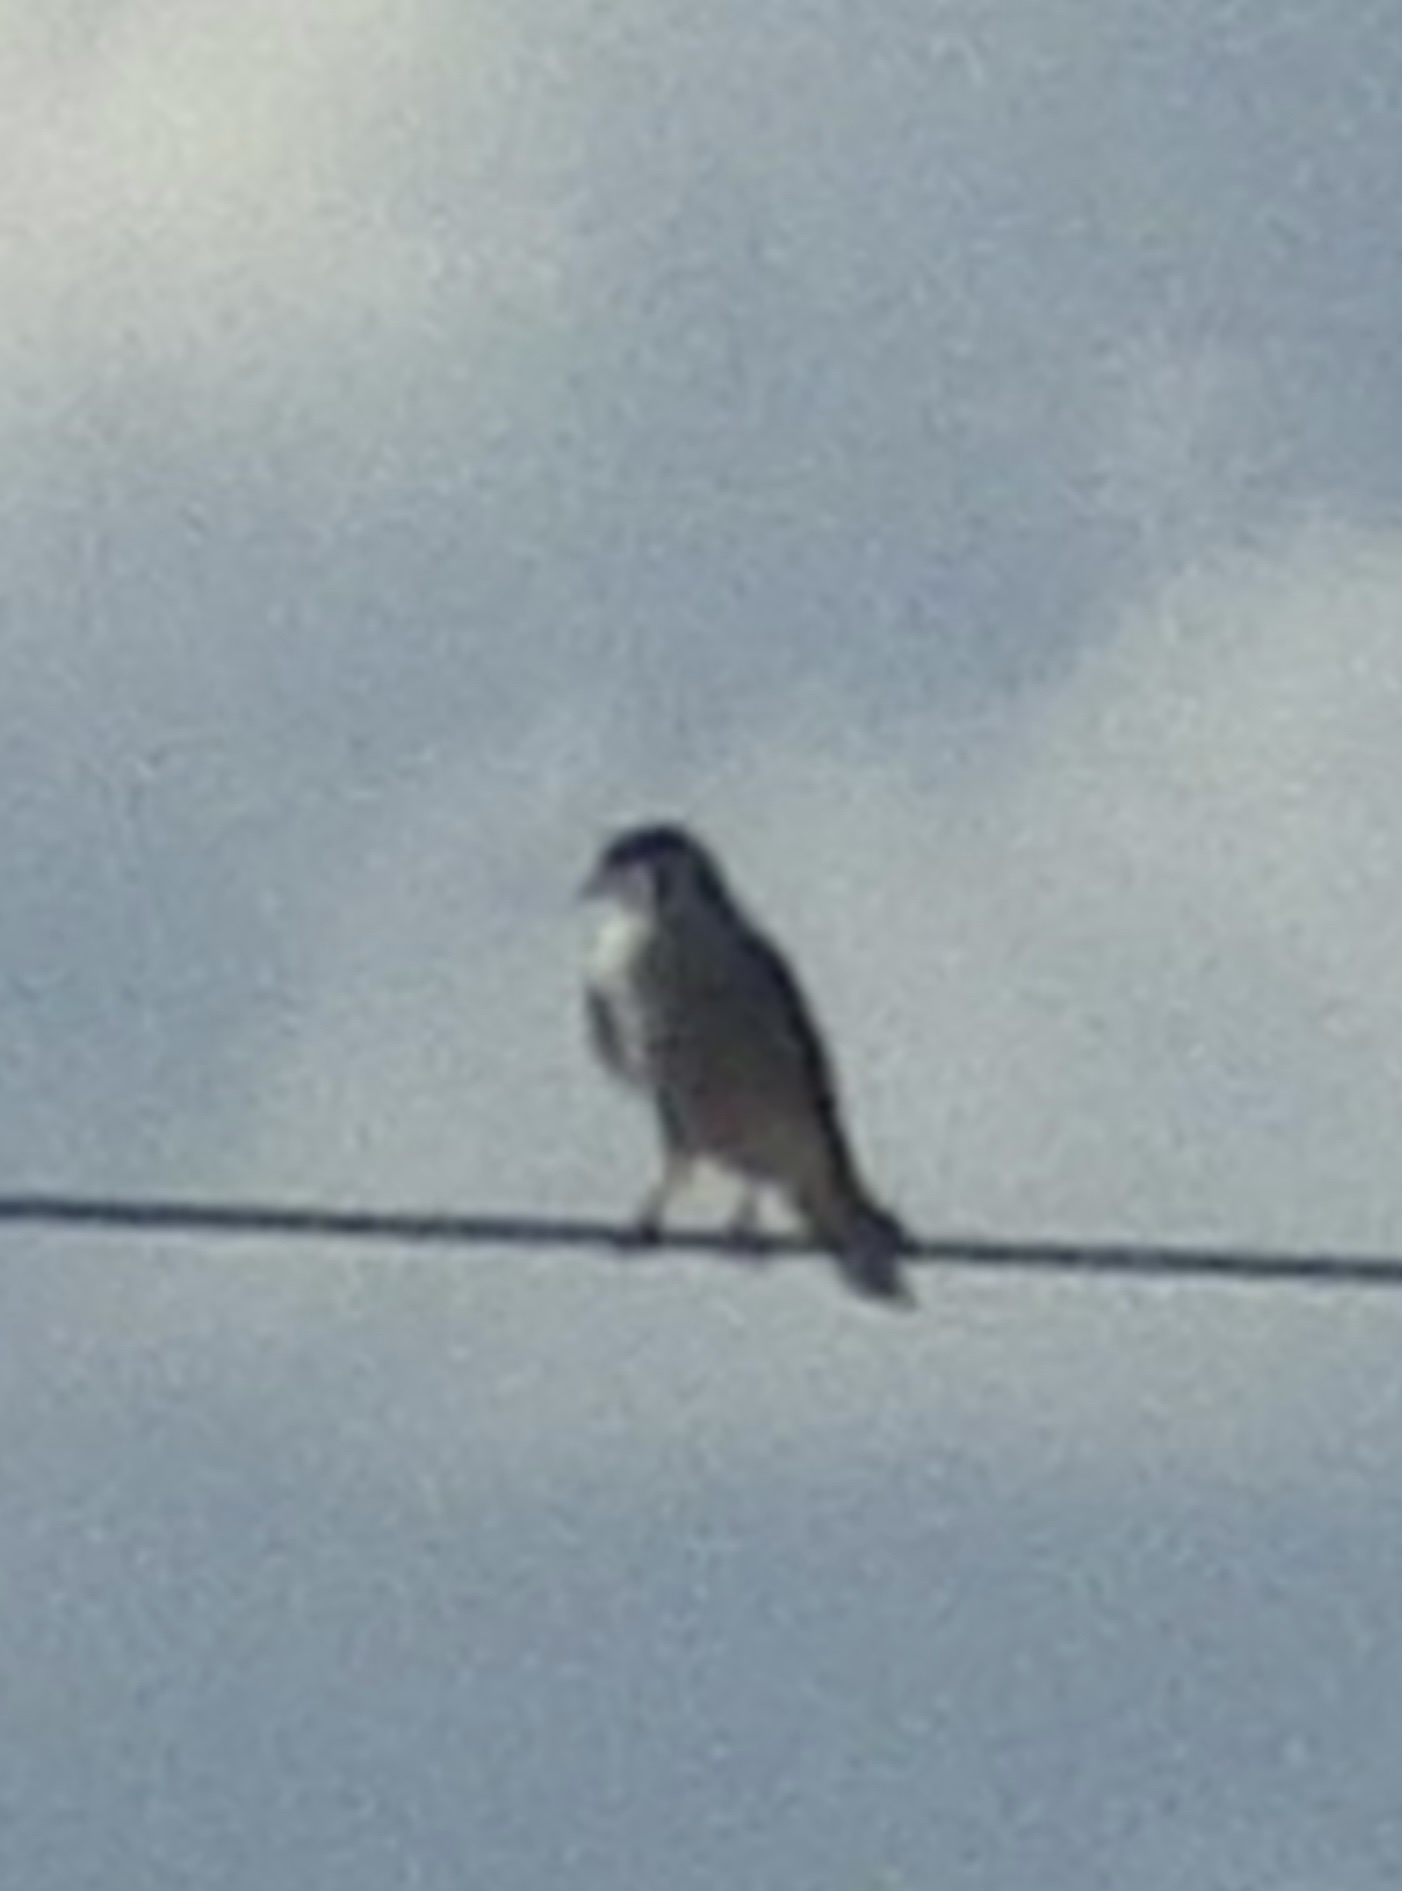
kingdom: Animalia
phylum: Chordata
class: Aves
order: Falconiformes
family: Falconidae
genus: Falco
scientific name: Falco sparverius
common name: American kestrel
